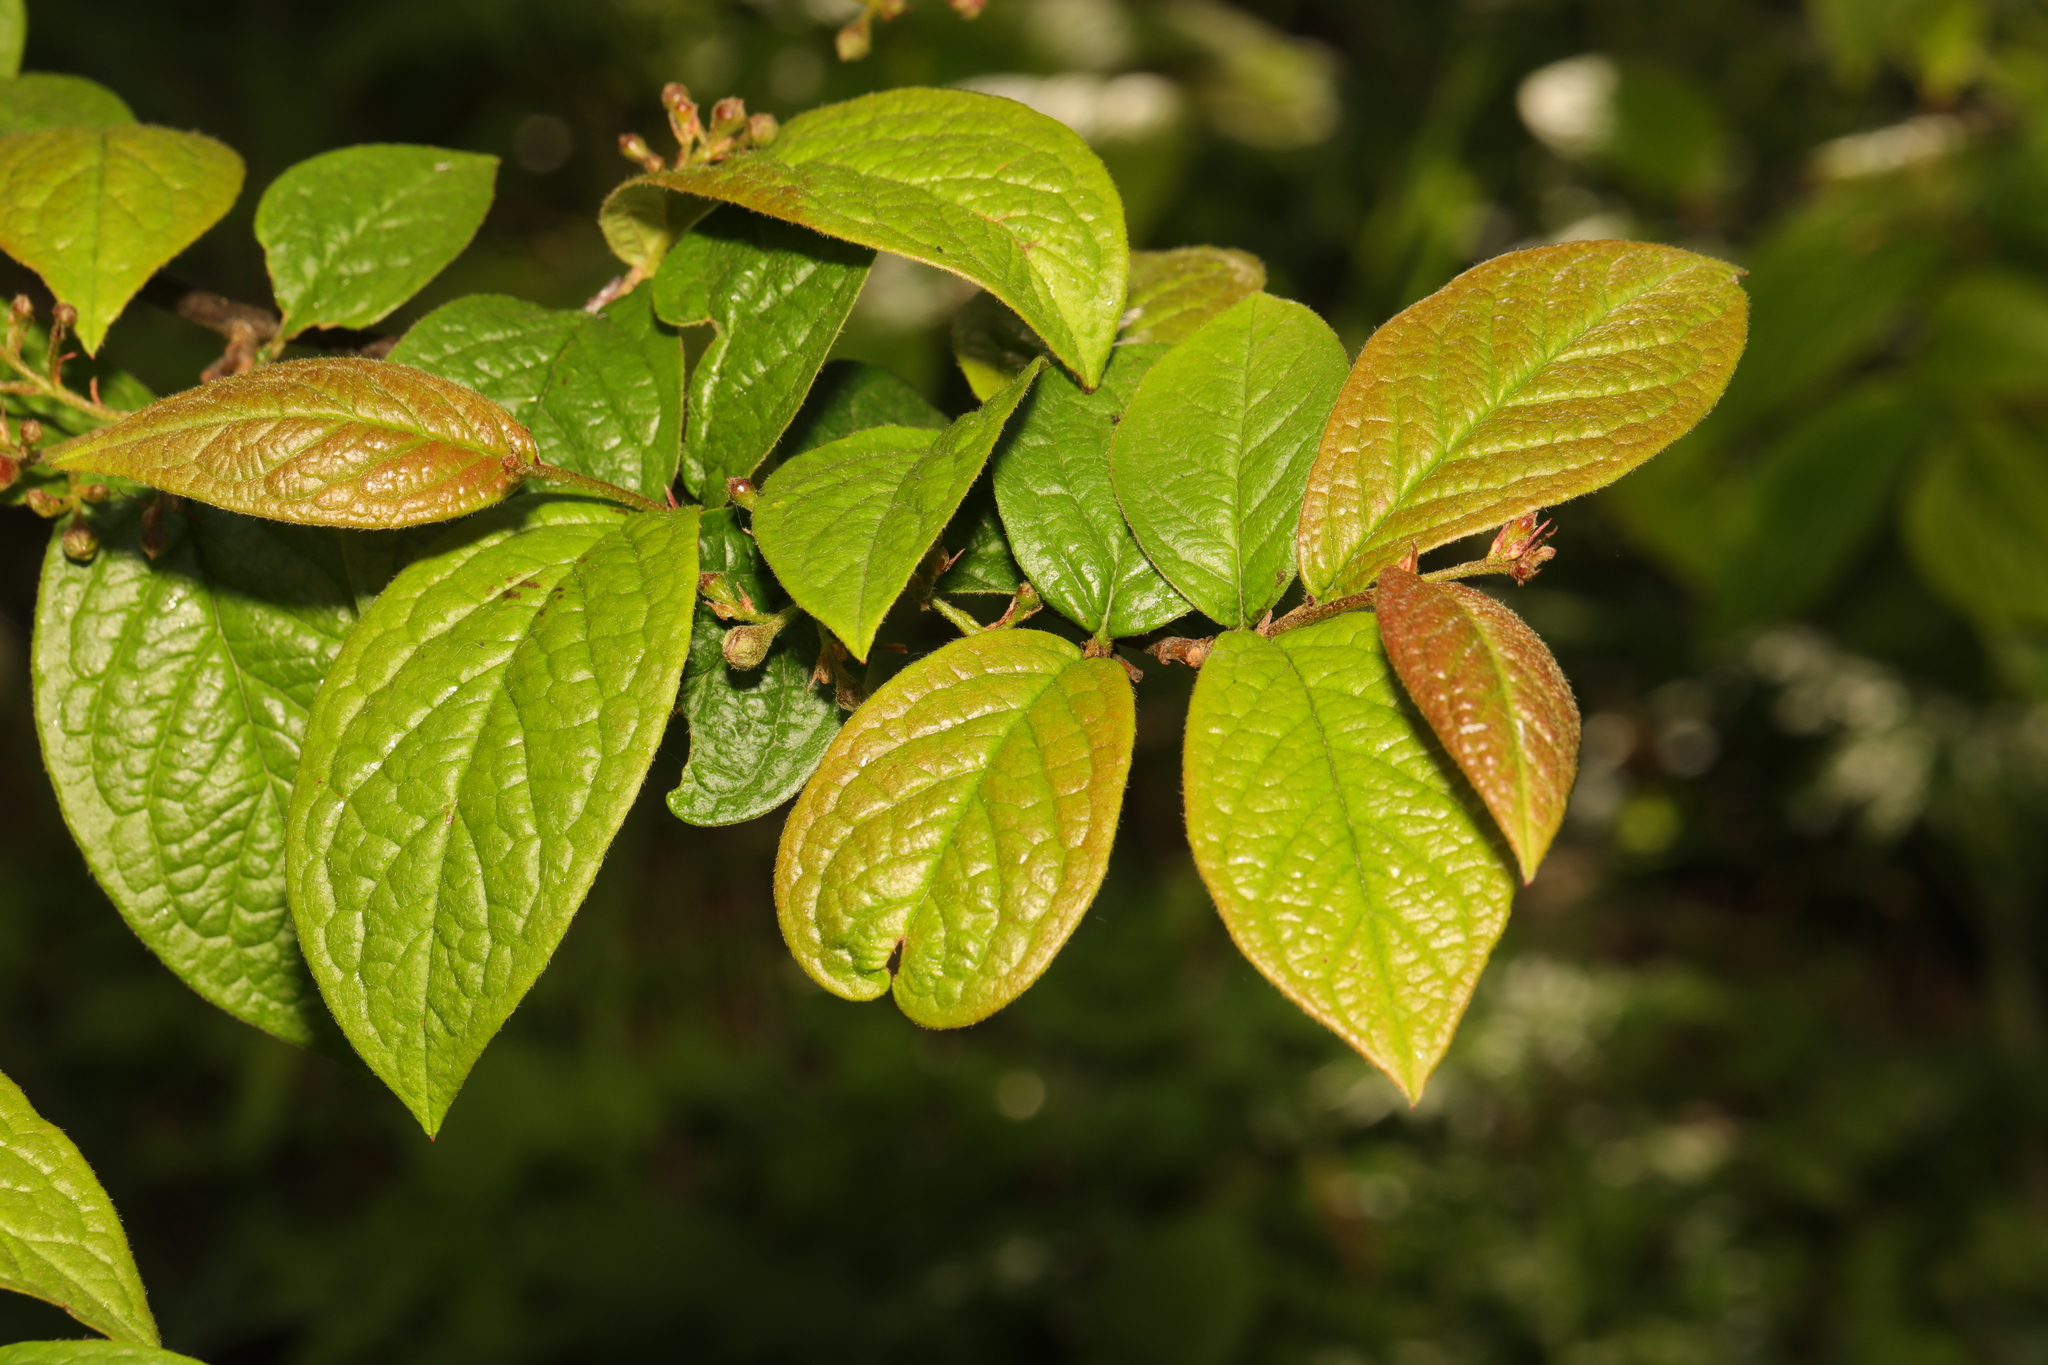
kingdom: Plantae
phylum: Tracheophyta
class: Magnoliopsida
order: Rosales
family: Rosaceae
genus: Cotoneaster
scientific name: Cotoneaster bullatus
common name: Hollyberry cotoneaster
